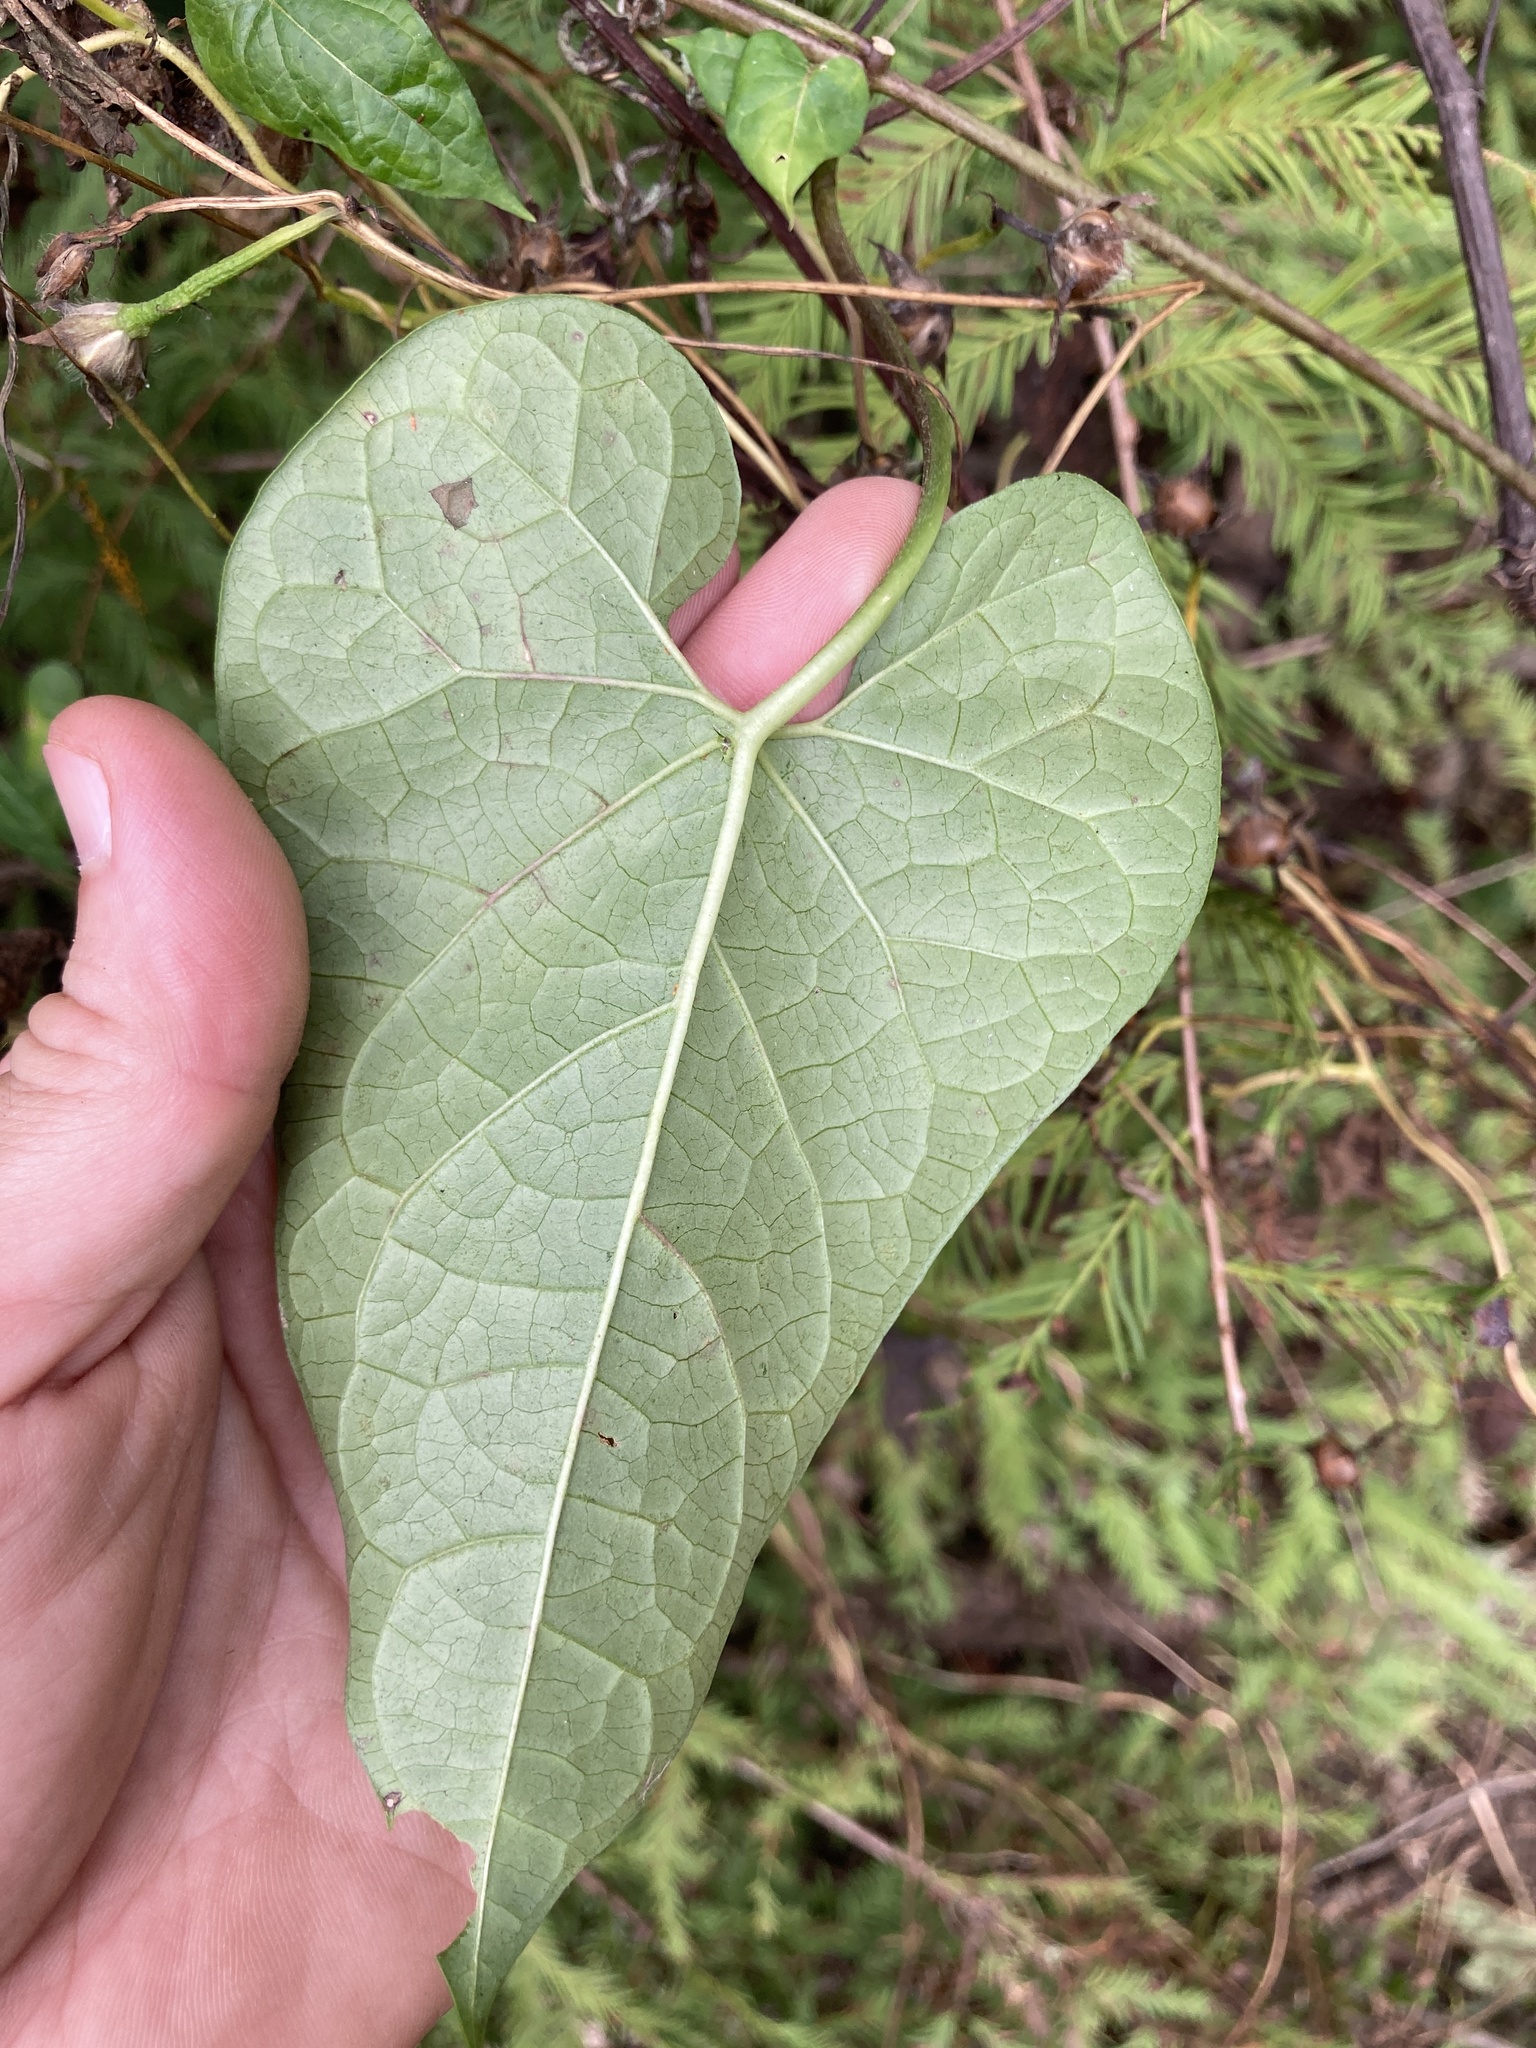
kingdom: Plantae
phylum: Tracheophyta
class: Magnoliopsida
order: Gentianales
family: Apocynaceae
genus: Cynanchum
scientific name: Cynanchum laeve
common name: Sandvine
